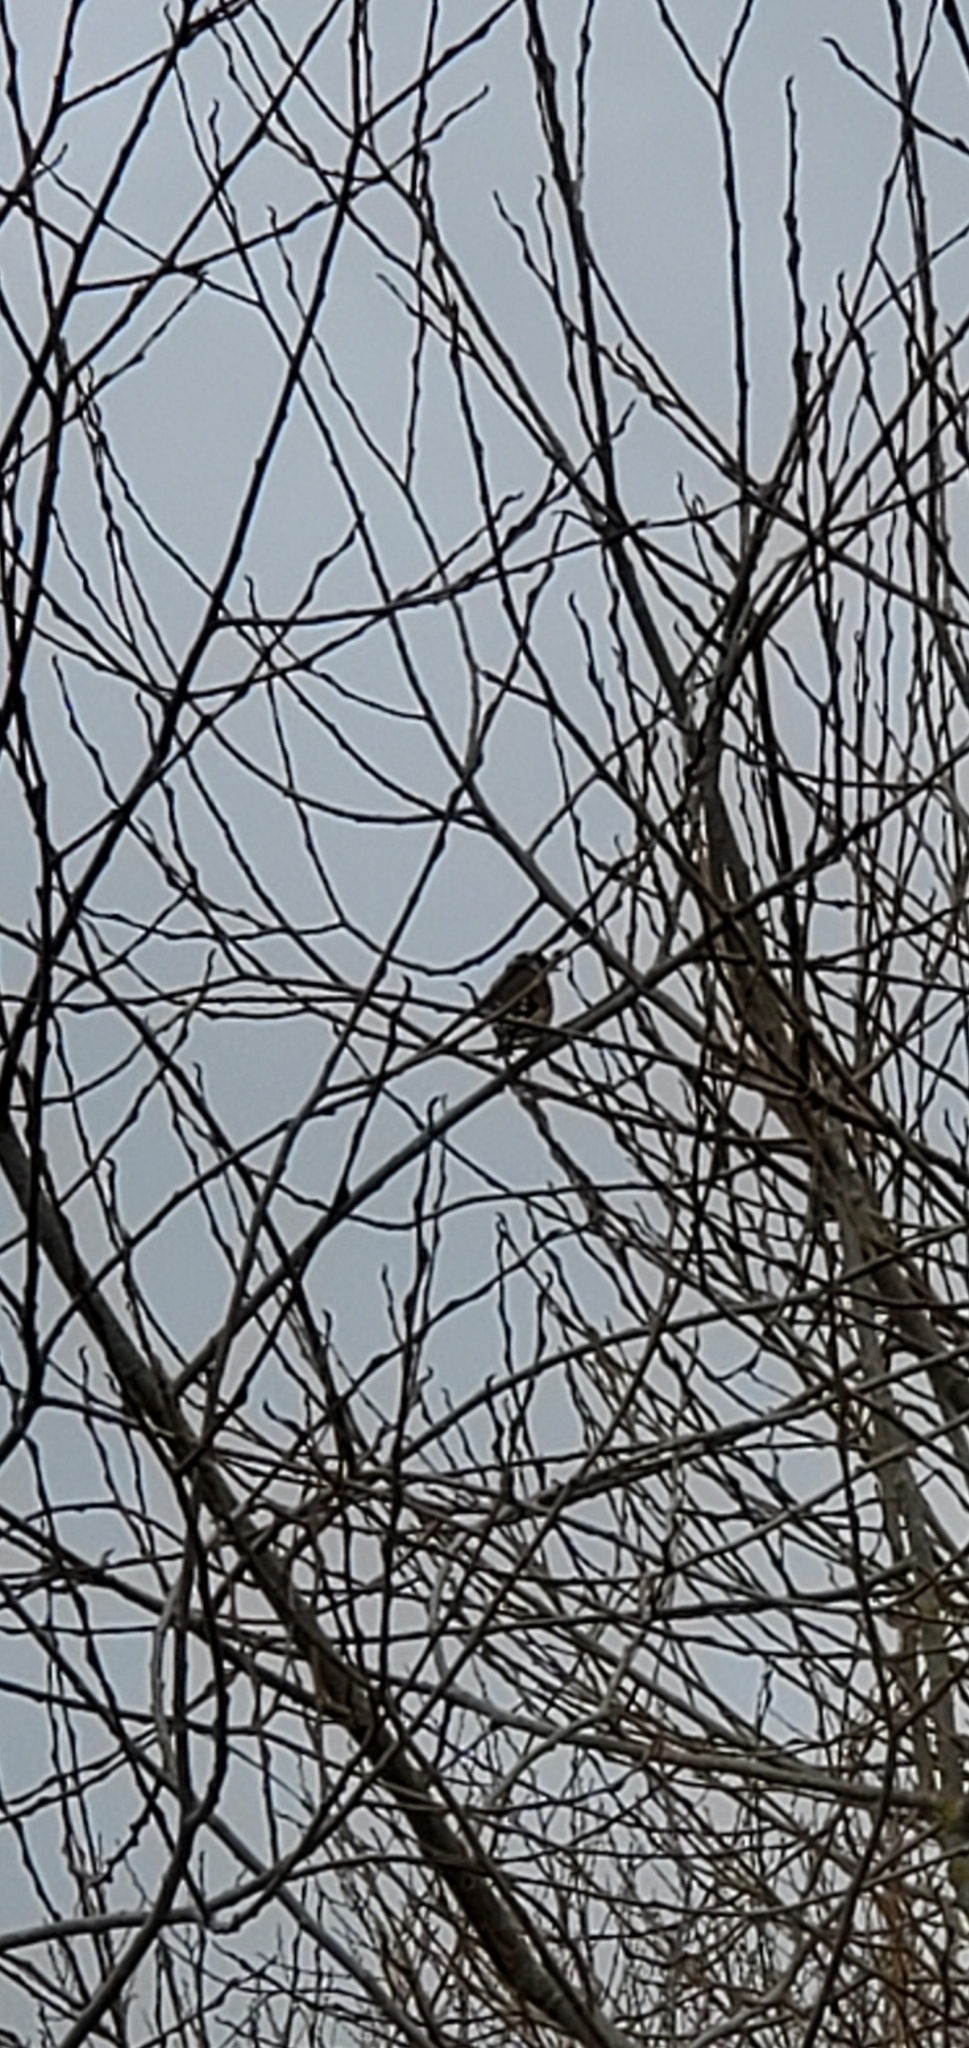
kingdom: Animalia
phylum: Chordata
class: Aves
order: Passeriformes
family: Fringillidae
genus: Carduelis
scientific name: Carduelis carduelis
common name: European goldfinch
